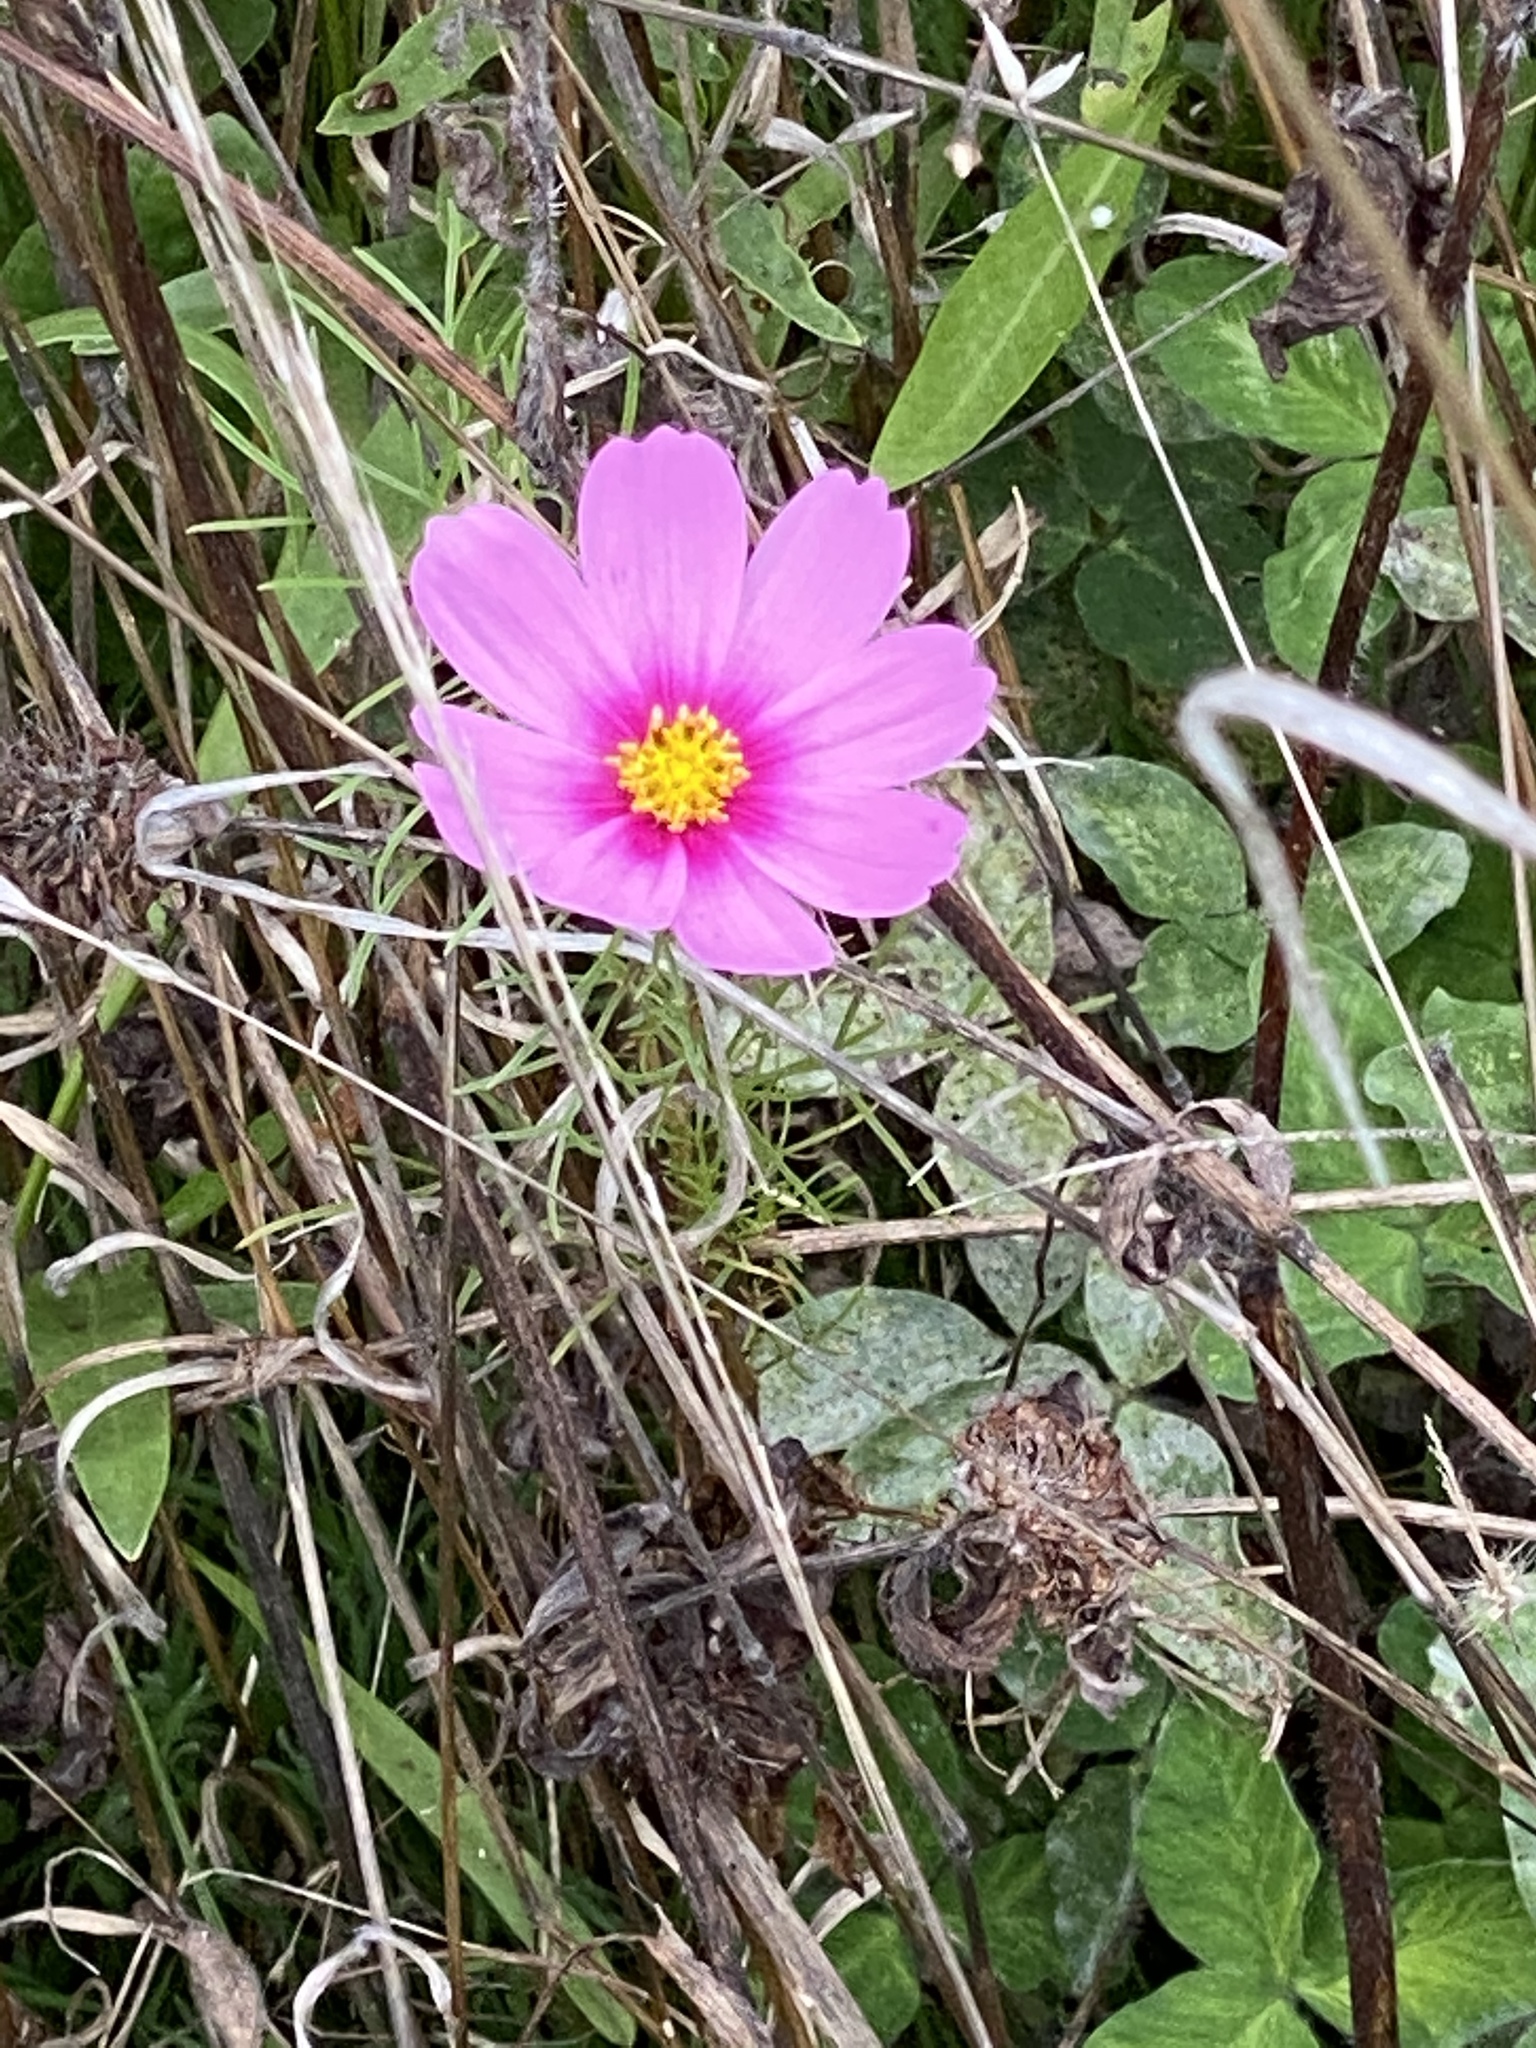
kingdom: Plantae
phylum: Tracheophyta
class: Magnoliopsida
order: Asterales
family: Asteraceae
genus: Cosmos
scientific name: Cosmos bipinnatus
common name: Garden cosmos
